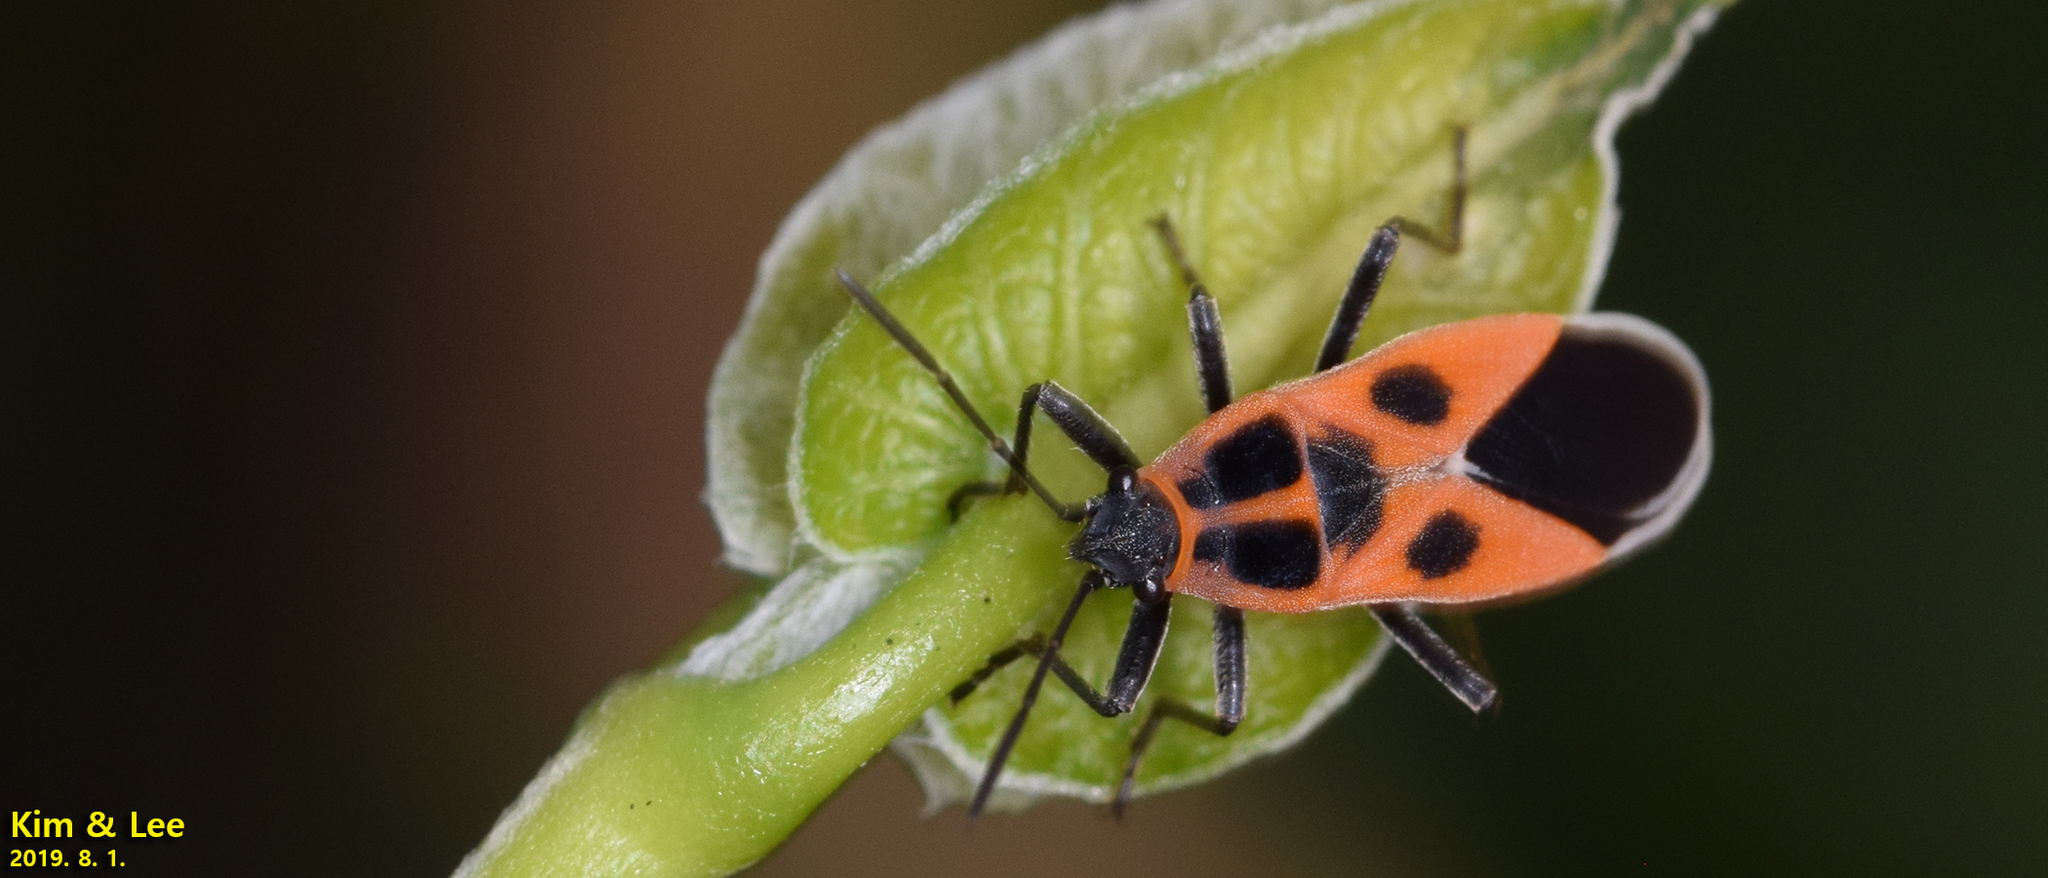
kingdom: Animalia
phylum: Arthropoda
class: Insecta
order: Hemiptera
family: Lygaeidae
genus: Tropidothorax
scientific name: Tropidothorax cruciger
